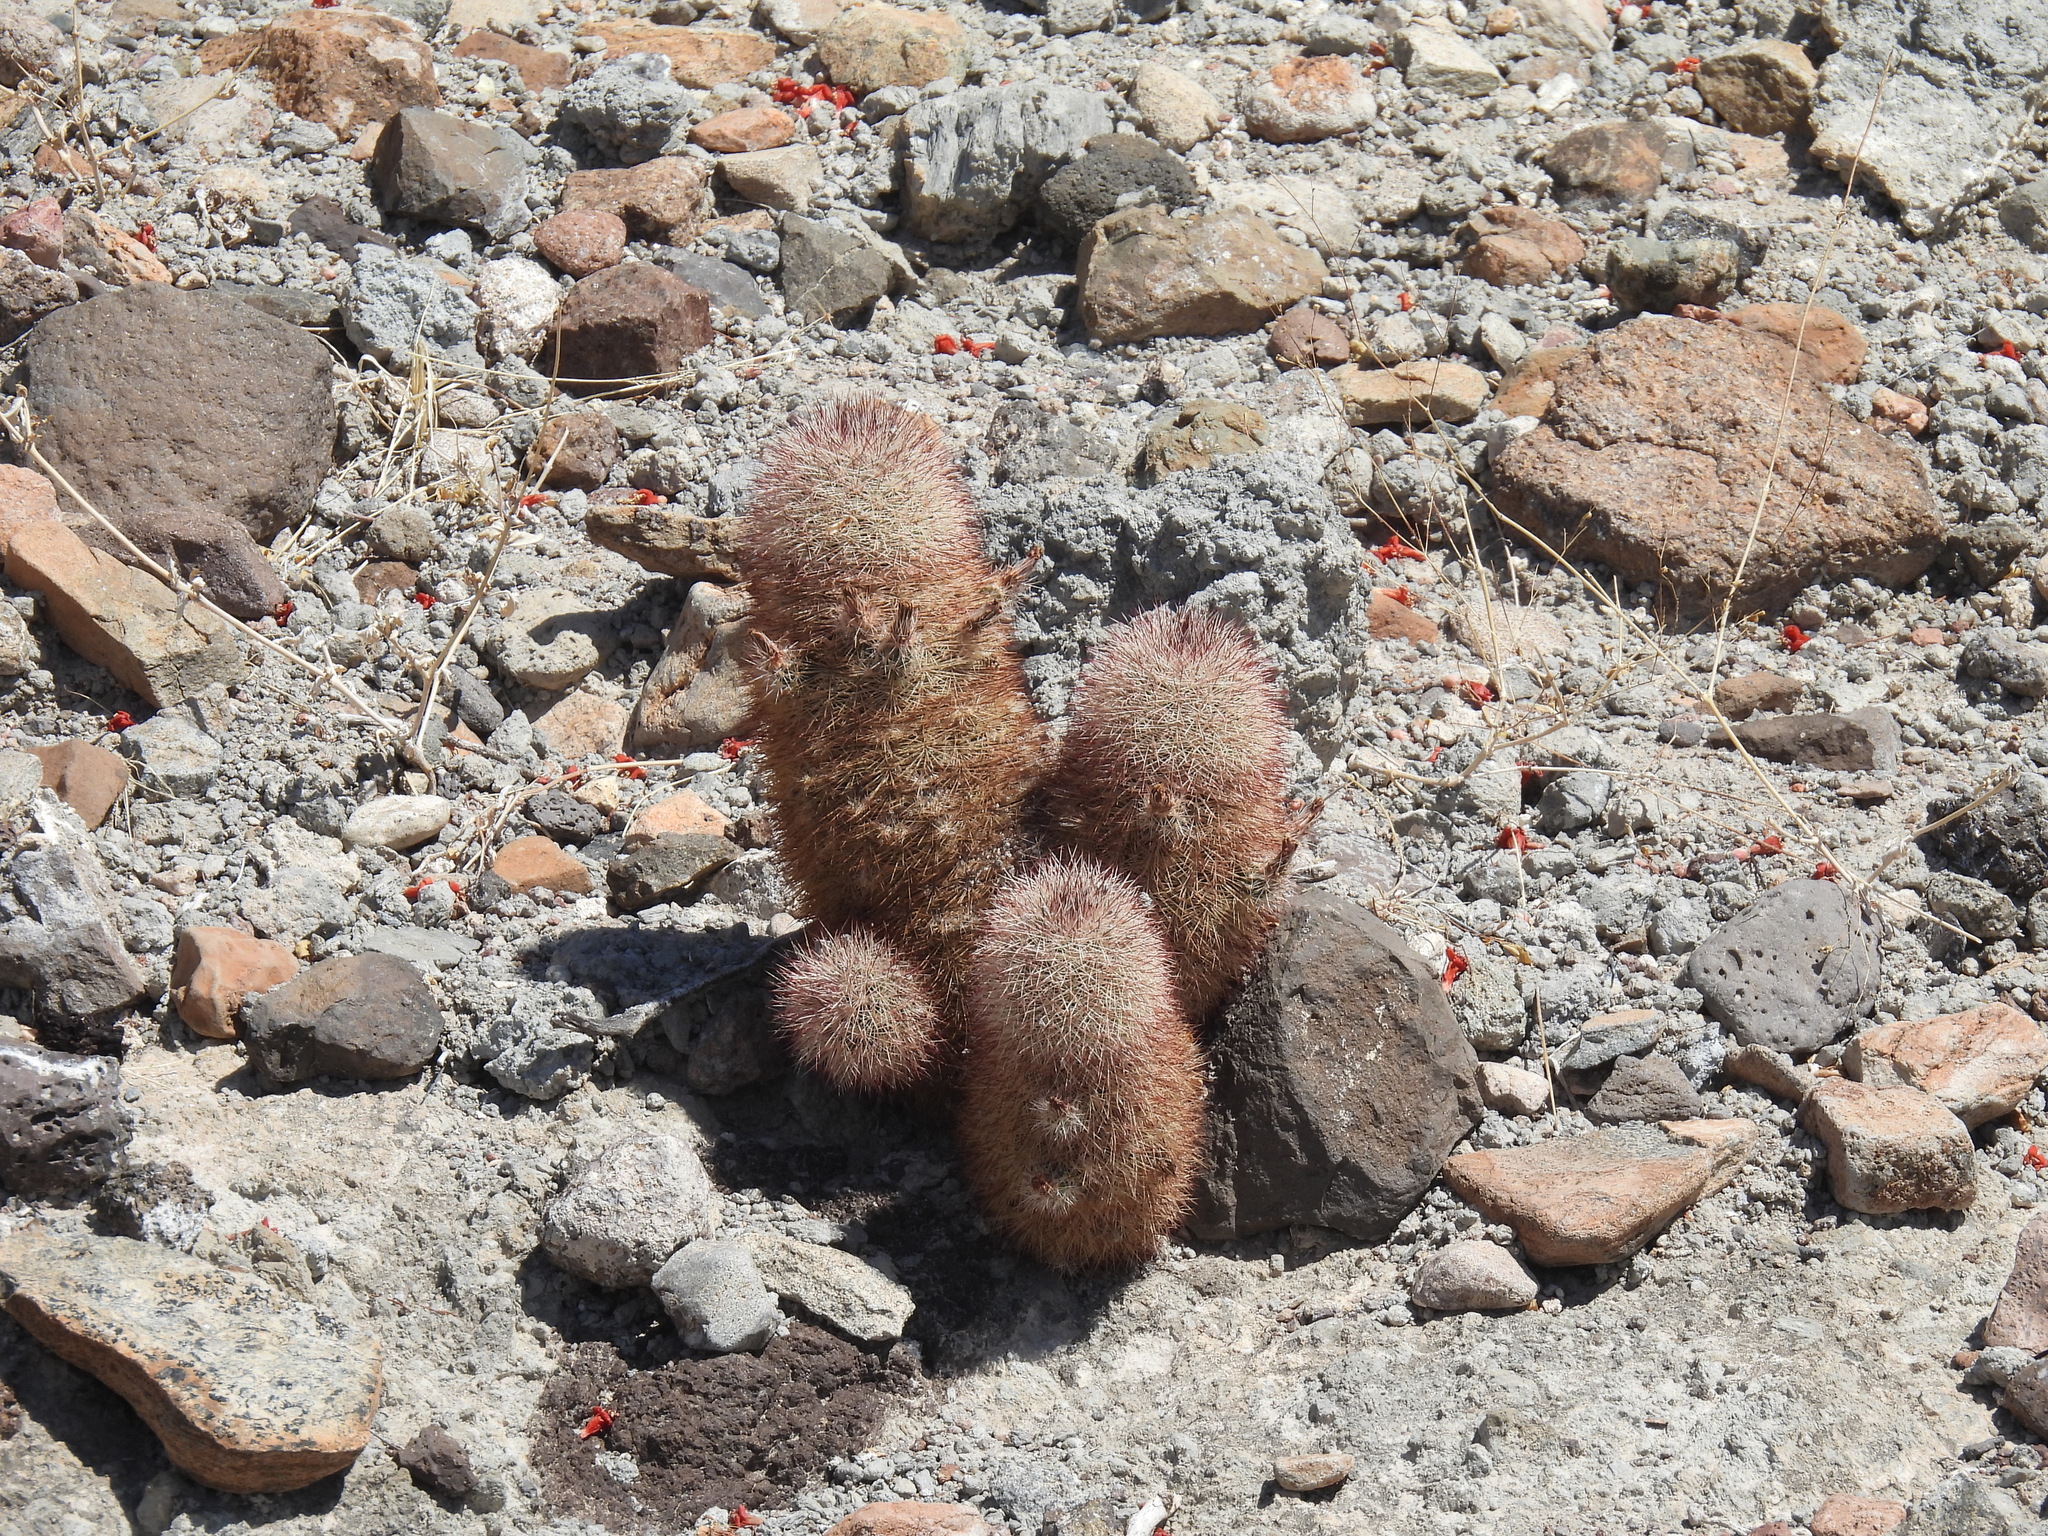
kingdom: Plantae
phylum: Tracheophyta
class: Magnoliopsida
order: Caryophyllales
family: Cactaceae
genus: Echinocereus
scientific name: Echinocereus russanthus
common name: Brownspine hedgehog cactus
